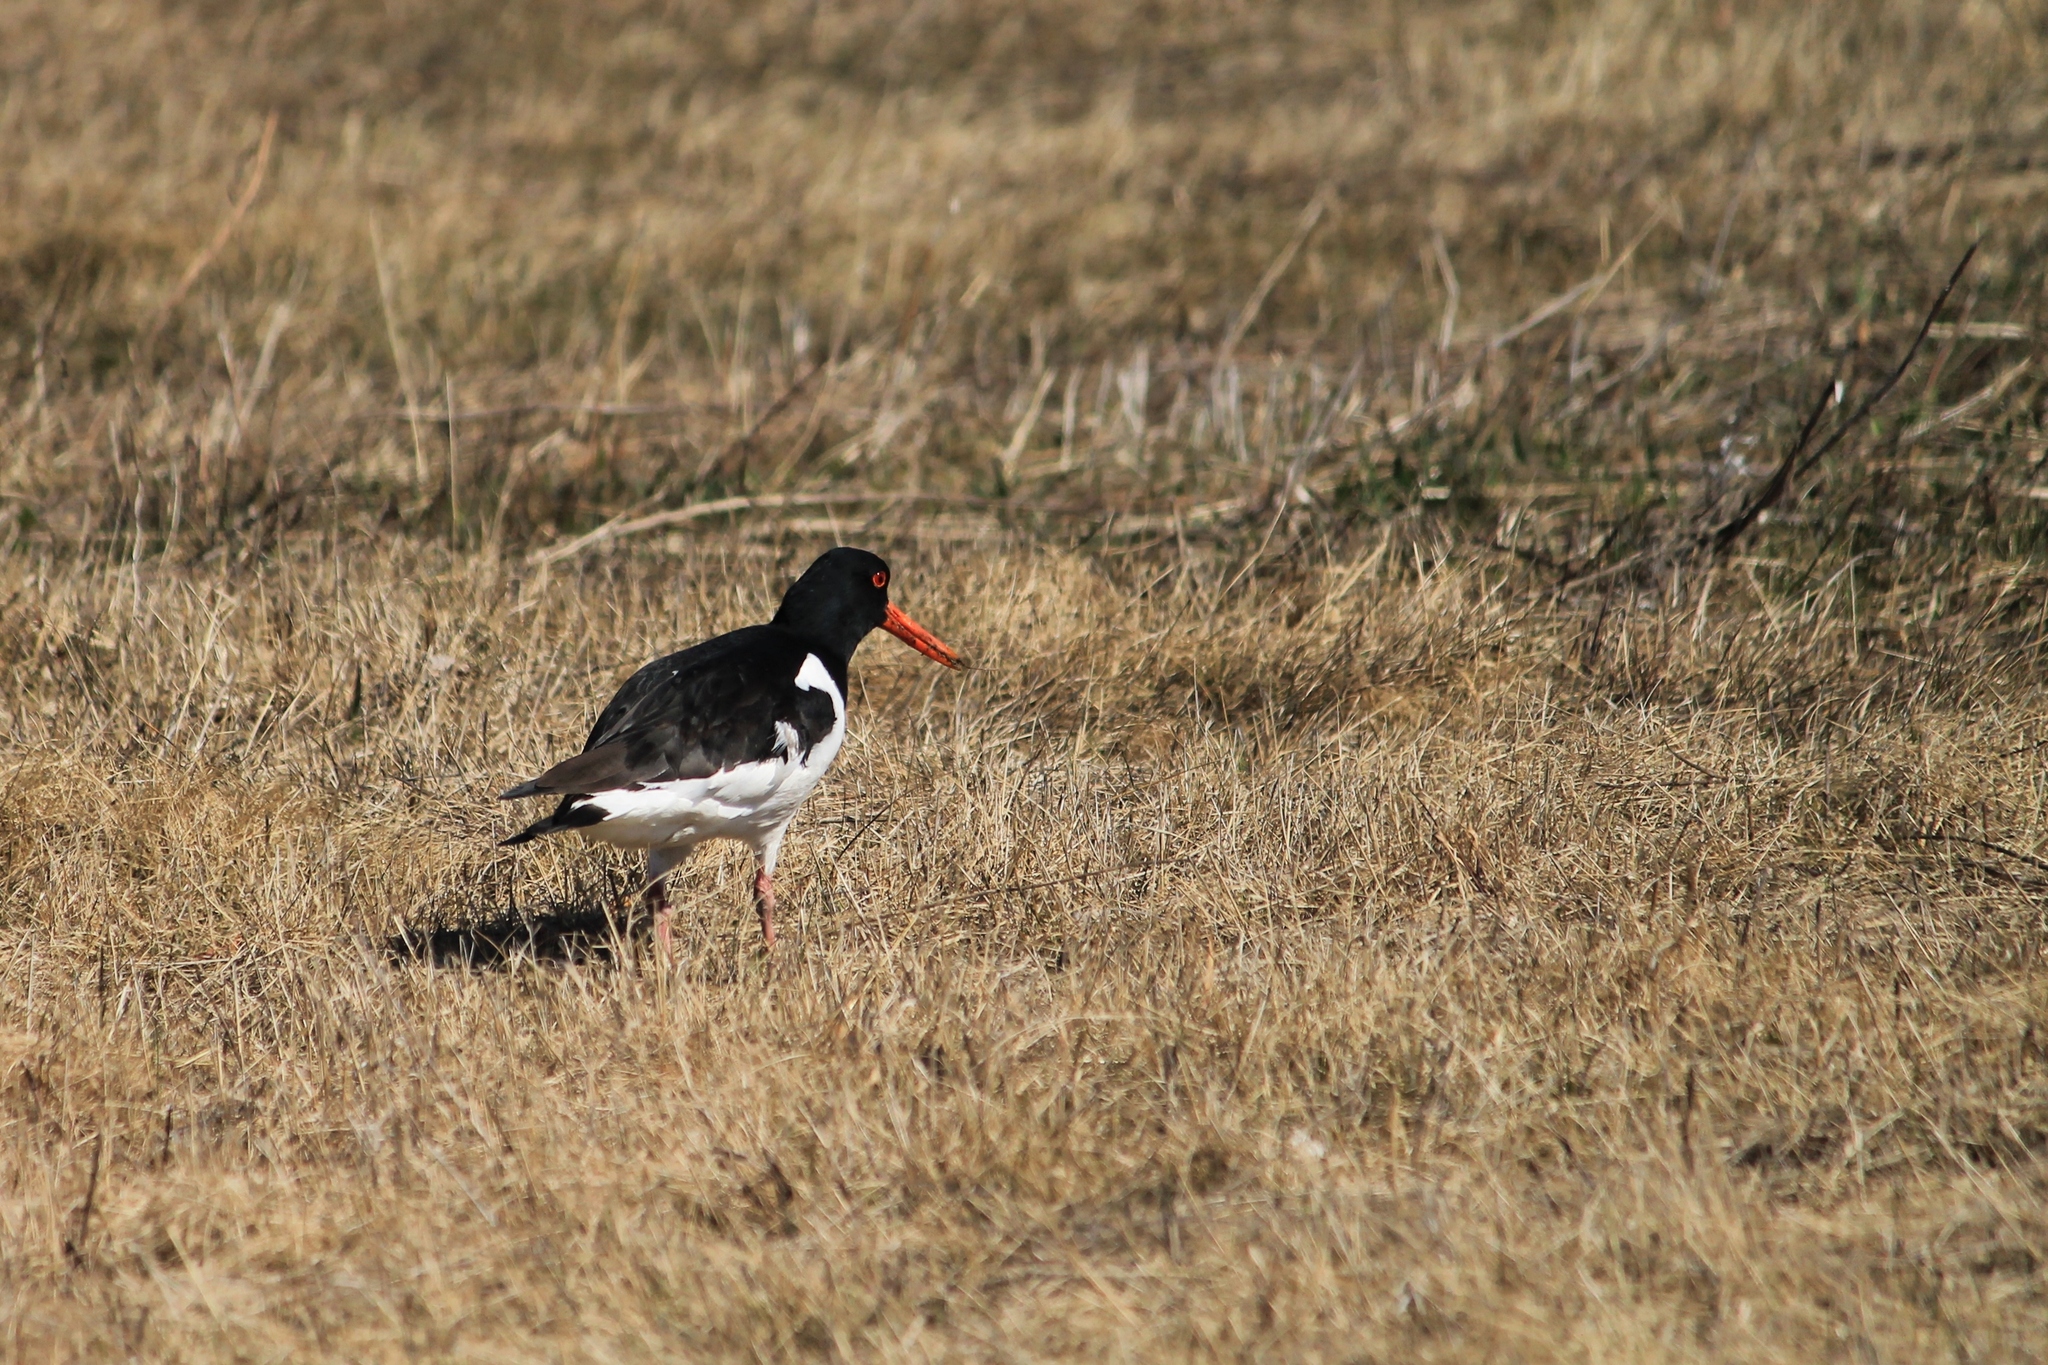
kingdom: Animalia
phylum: Chordata
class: Aves
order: Charadriiformes
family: Haematopodidae
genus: Haematopus
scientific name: Haematopus ostralegus
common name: Eurasian oystercatcher
